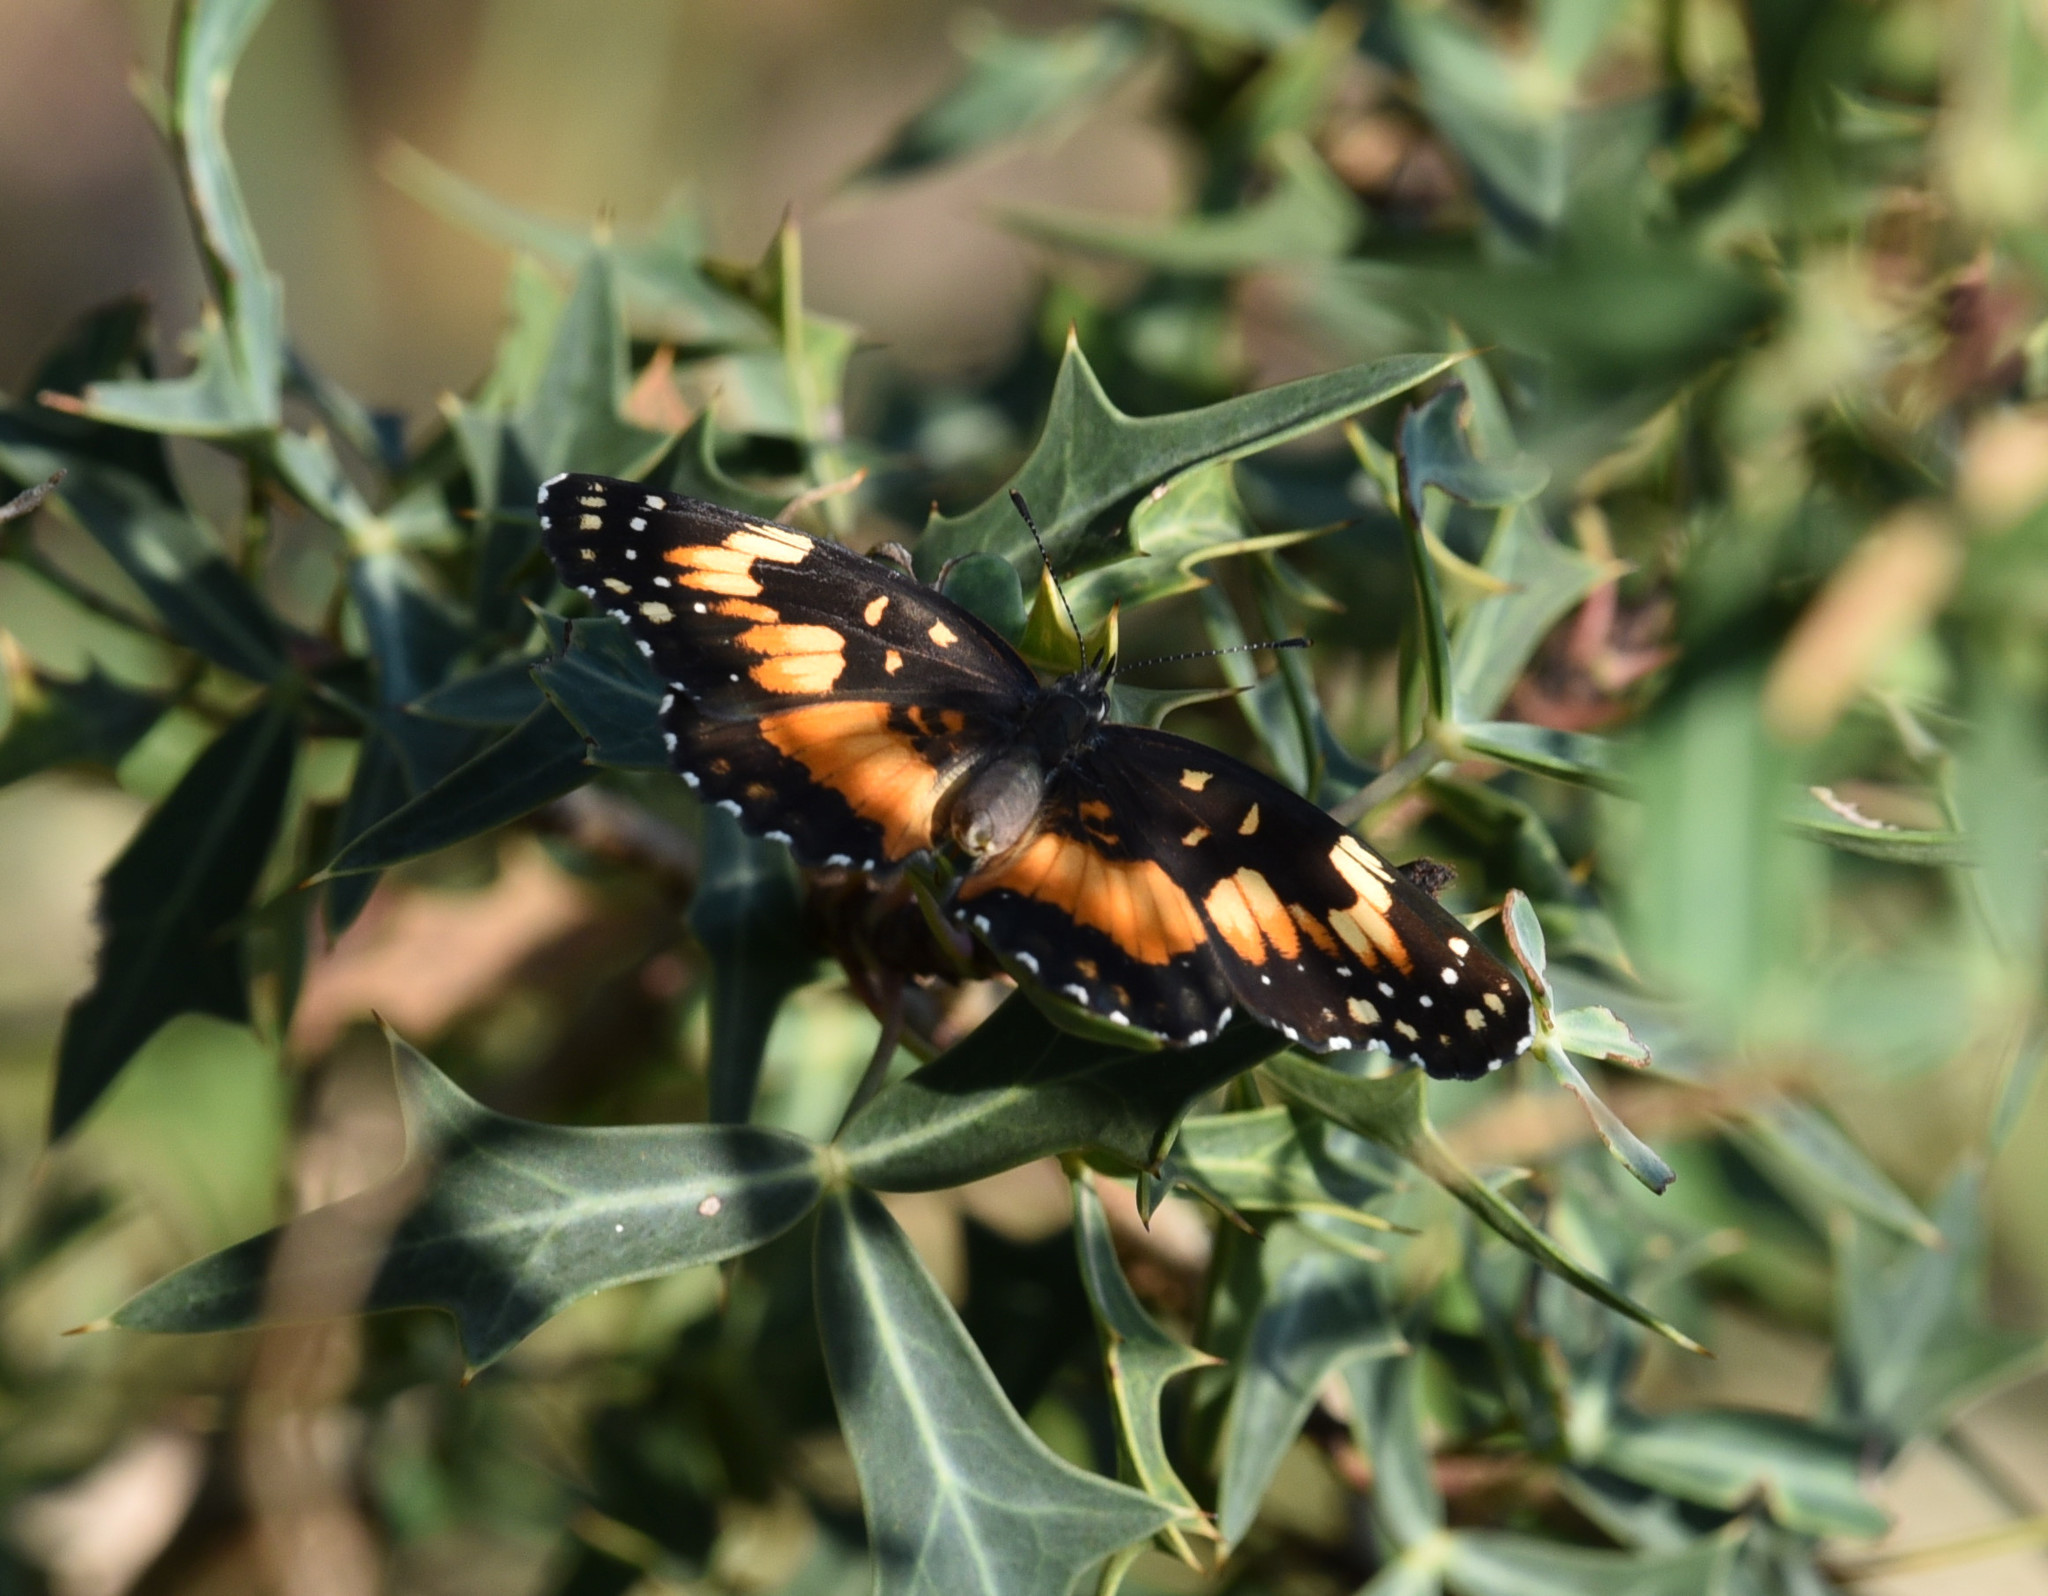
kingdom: Animalia
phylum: Arthropoda
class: Insecta
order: Lepidoptera
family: Nymphalidae
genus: Chlosyne
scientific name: Chlosyne lacinia
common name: Bordered patch
